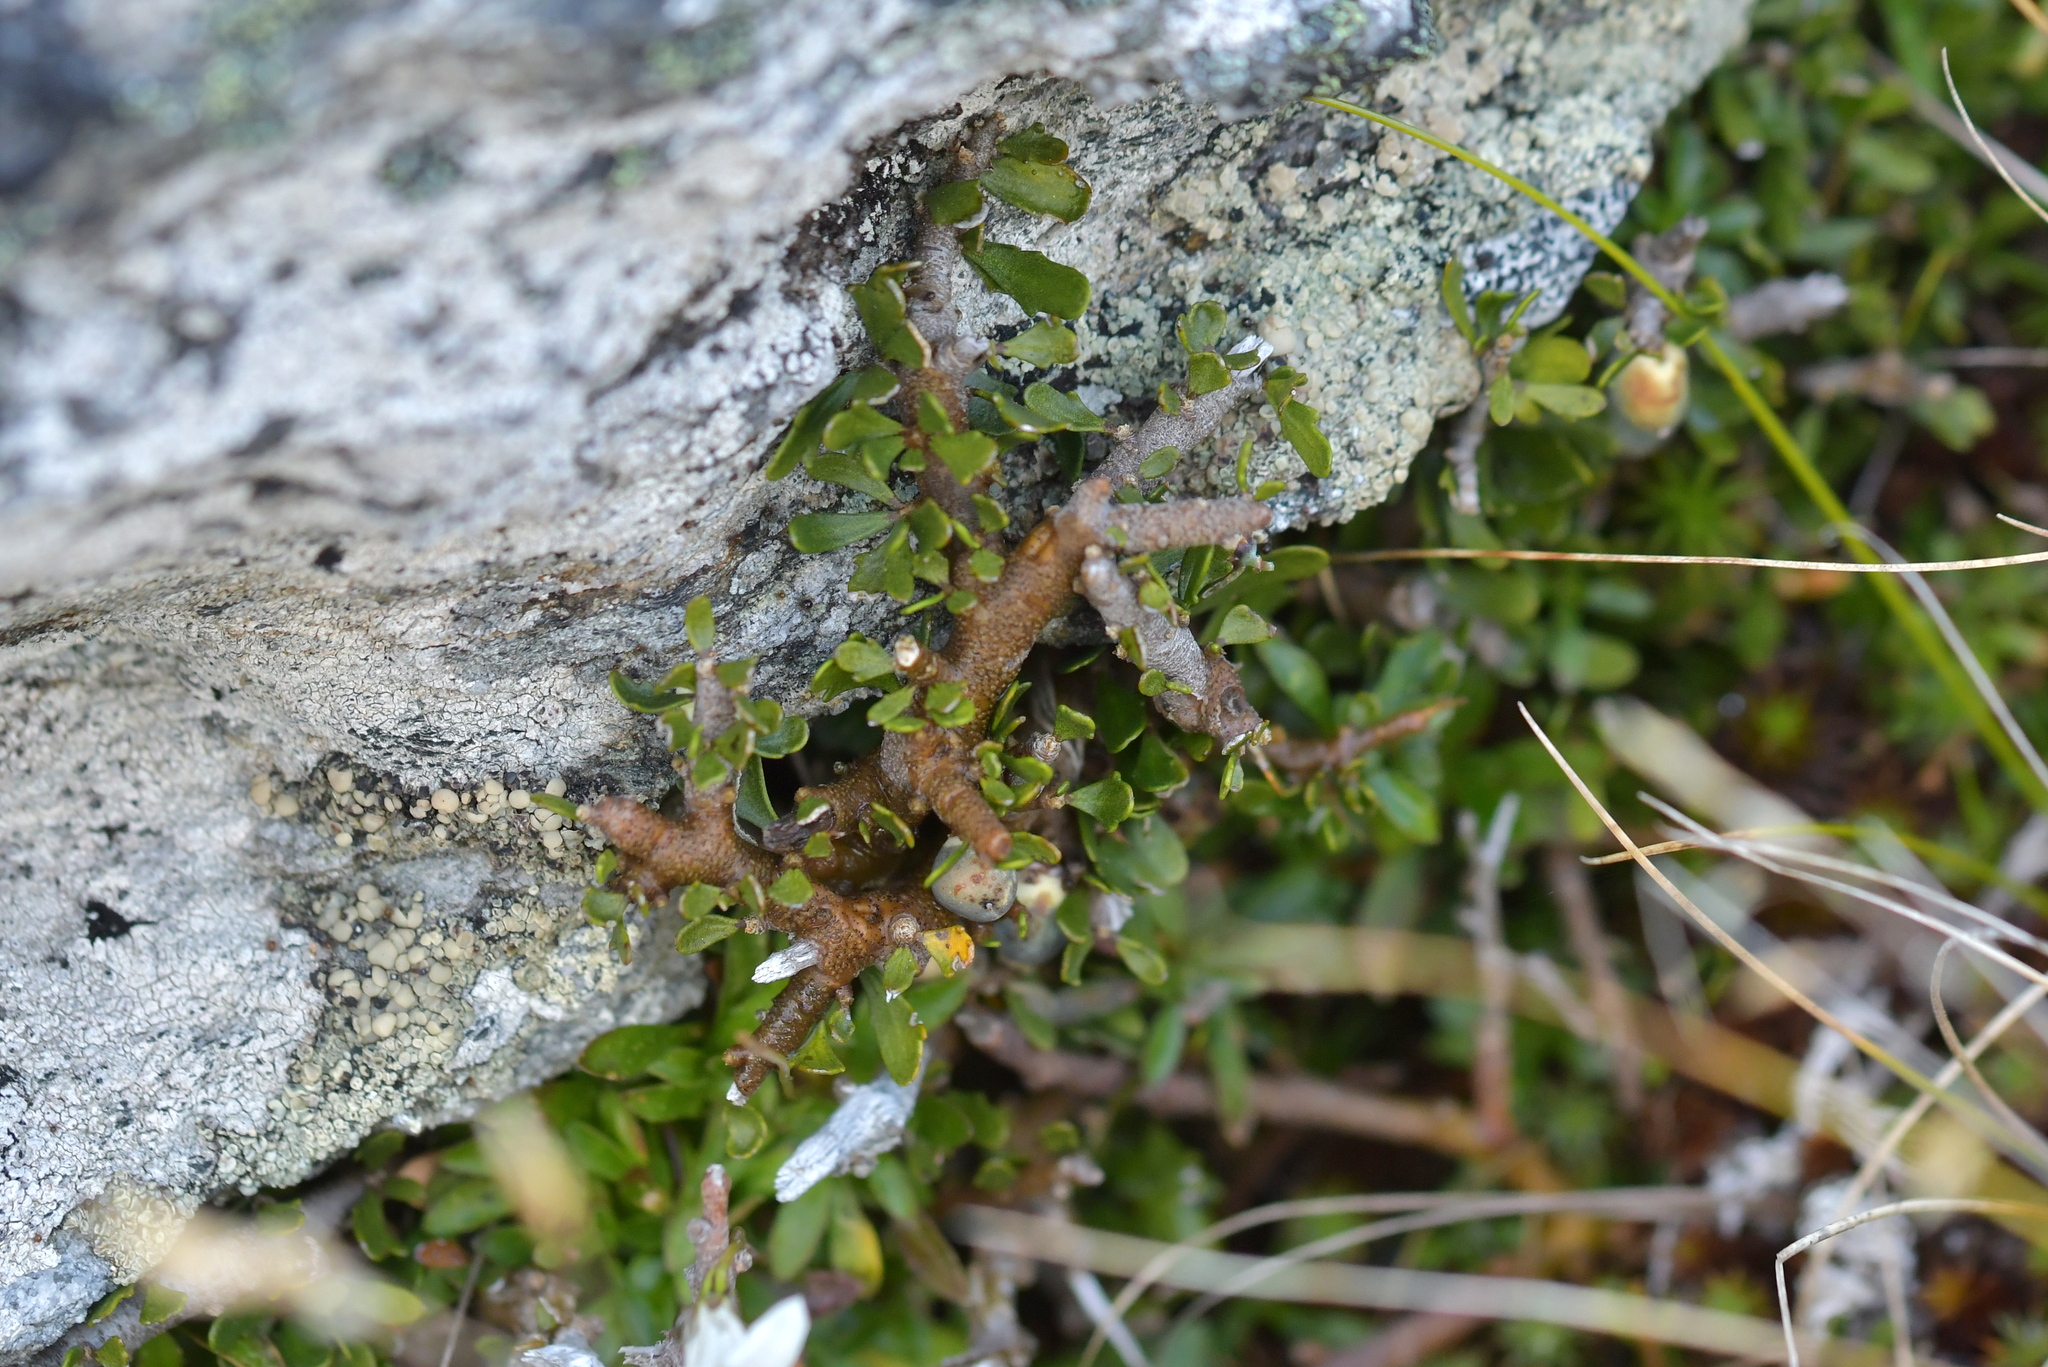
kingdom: Plantae
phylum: Tracheophyta
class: Magnoliopsida
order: Malpighiales
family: Violaceae
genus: Melicytus
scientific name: Melicytus alpinus
